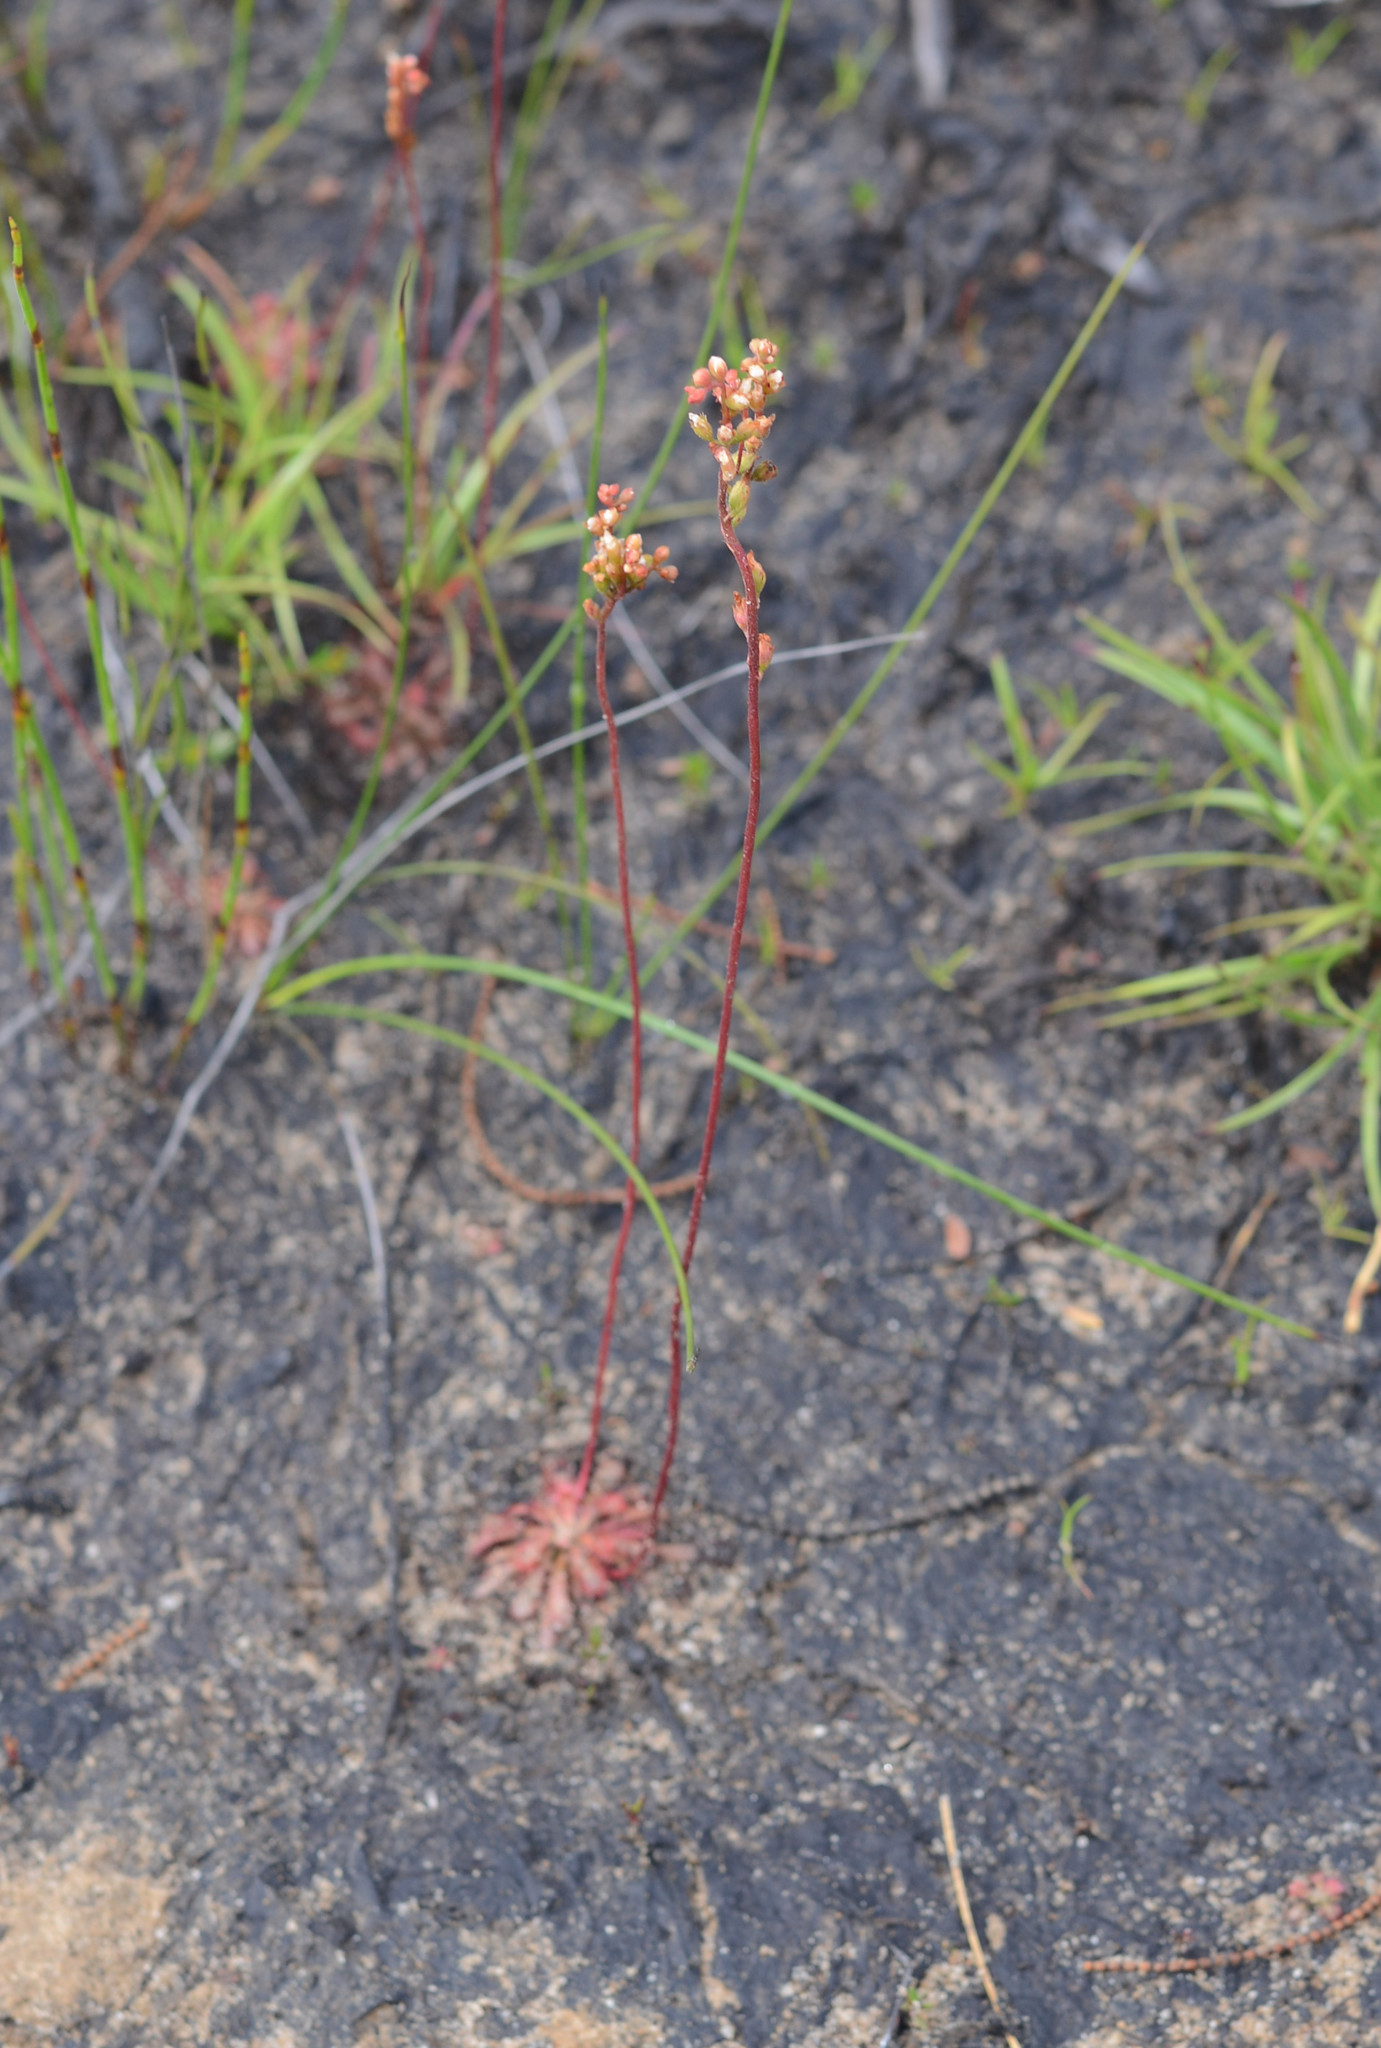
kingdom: Plantae
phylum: Tracheophyta
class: Magnoliopsida
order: Caryophyllales
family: Droseraceae
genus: Drosera
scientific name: Drosera spatulata
